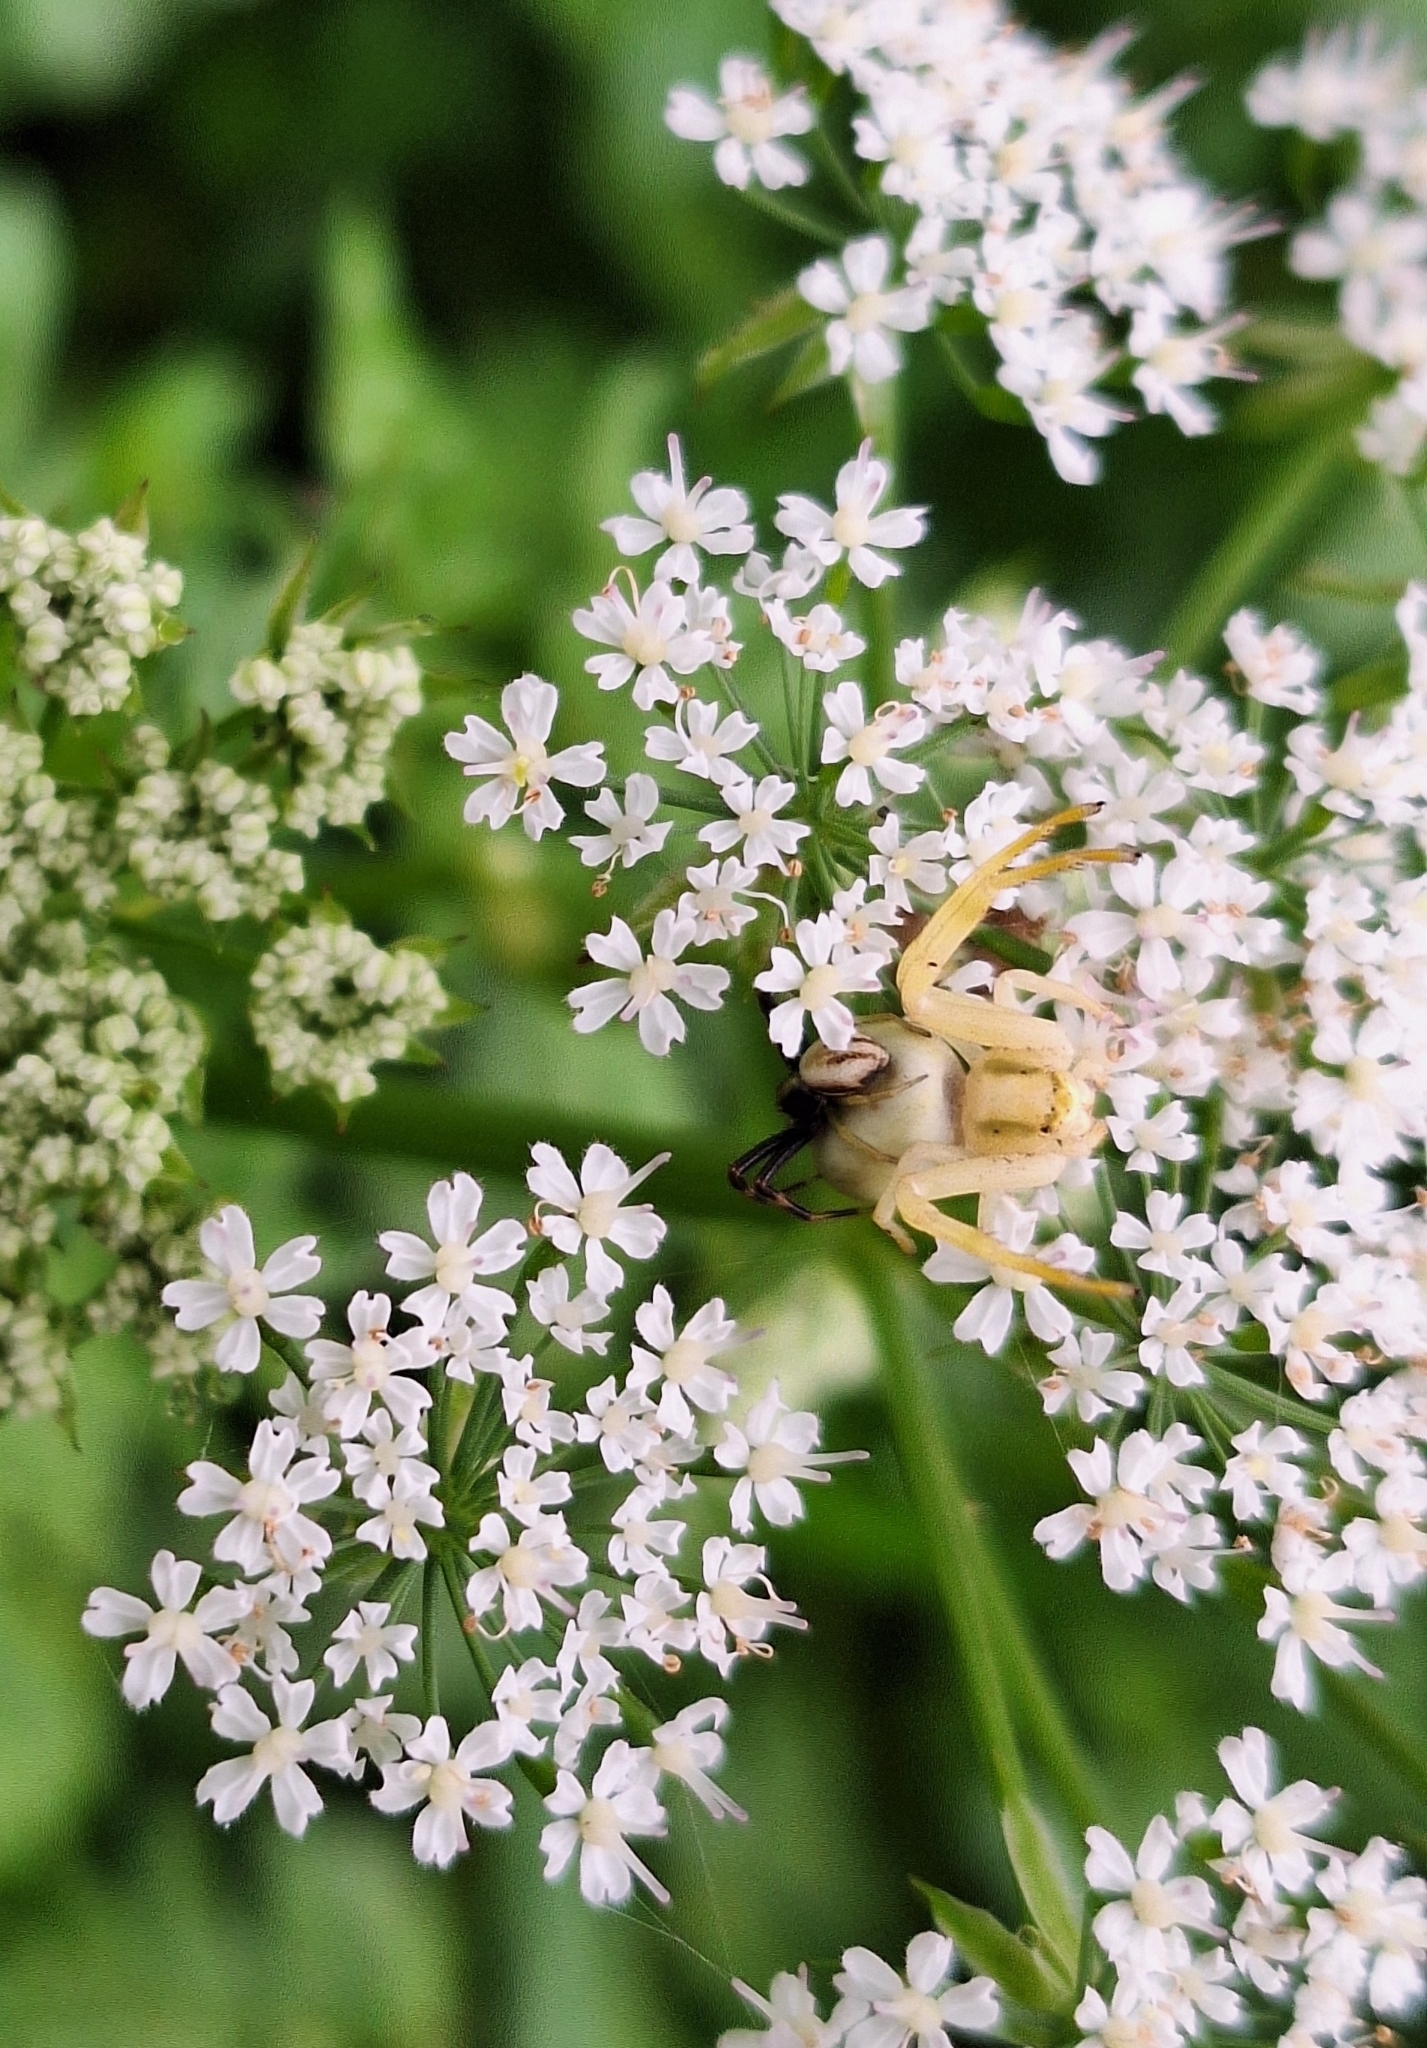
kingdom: Animalia
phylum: Arthropoda
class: Arachnida
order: Araneae
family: Thomisidae
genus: Misumena
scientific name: Misumena vatia
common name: Goldenrod crab spider
